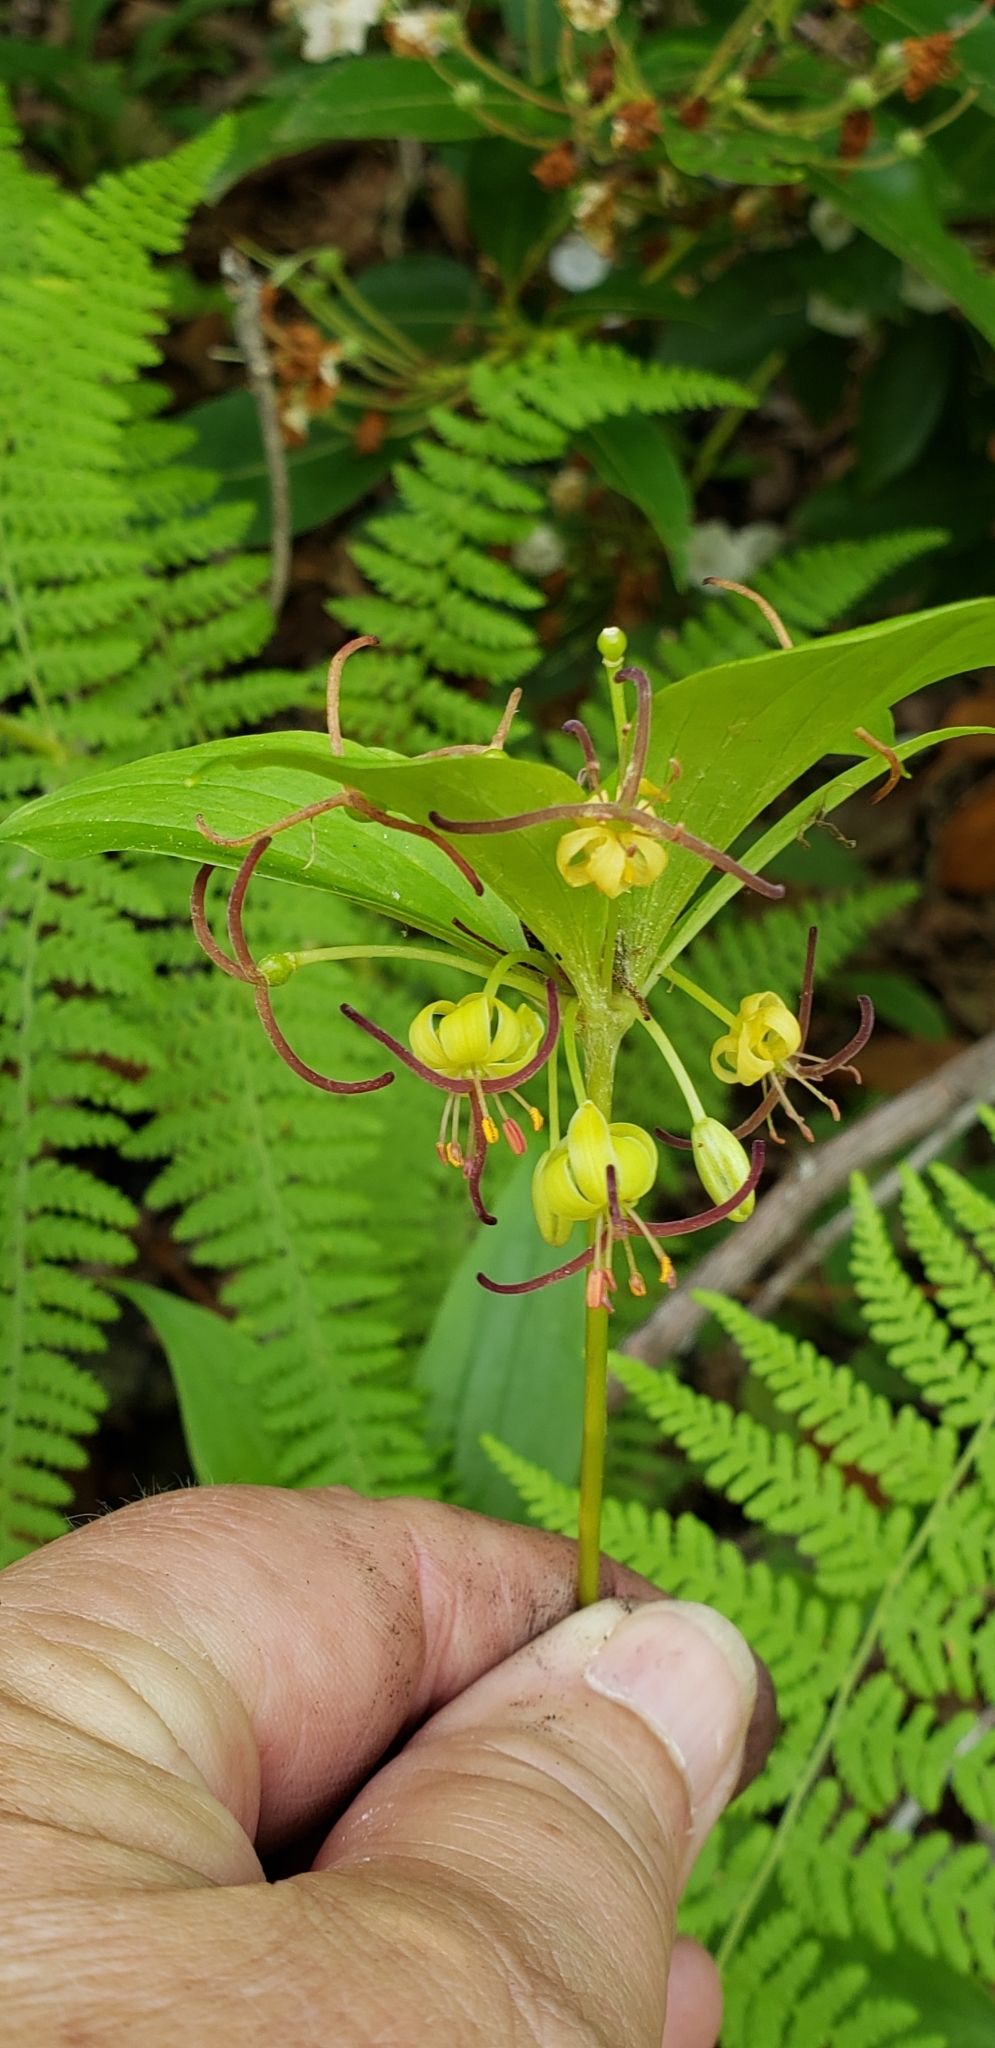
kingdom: Plantae
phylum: Tracheophyta
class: Liliopsida
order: Liliales
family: Liliaceae
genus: Medeola
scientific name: Medeola virginiana
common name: Indian cucumber-root
